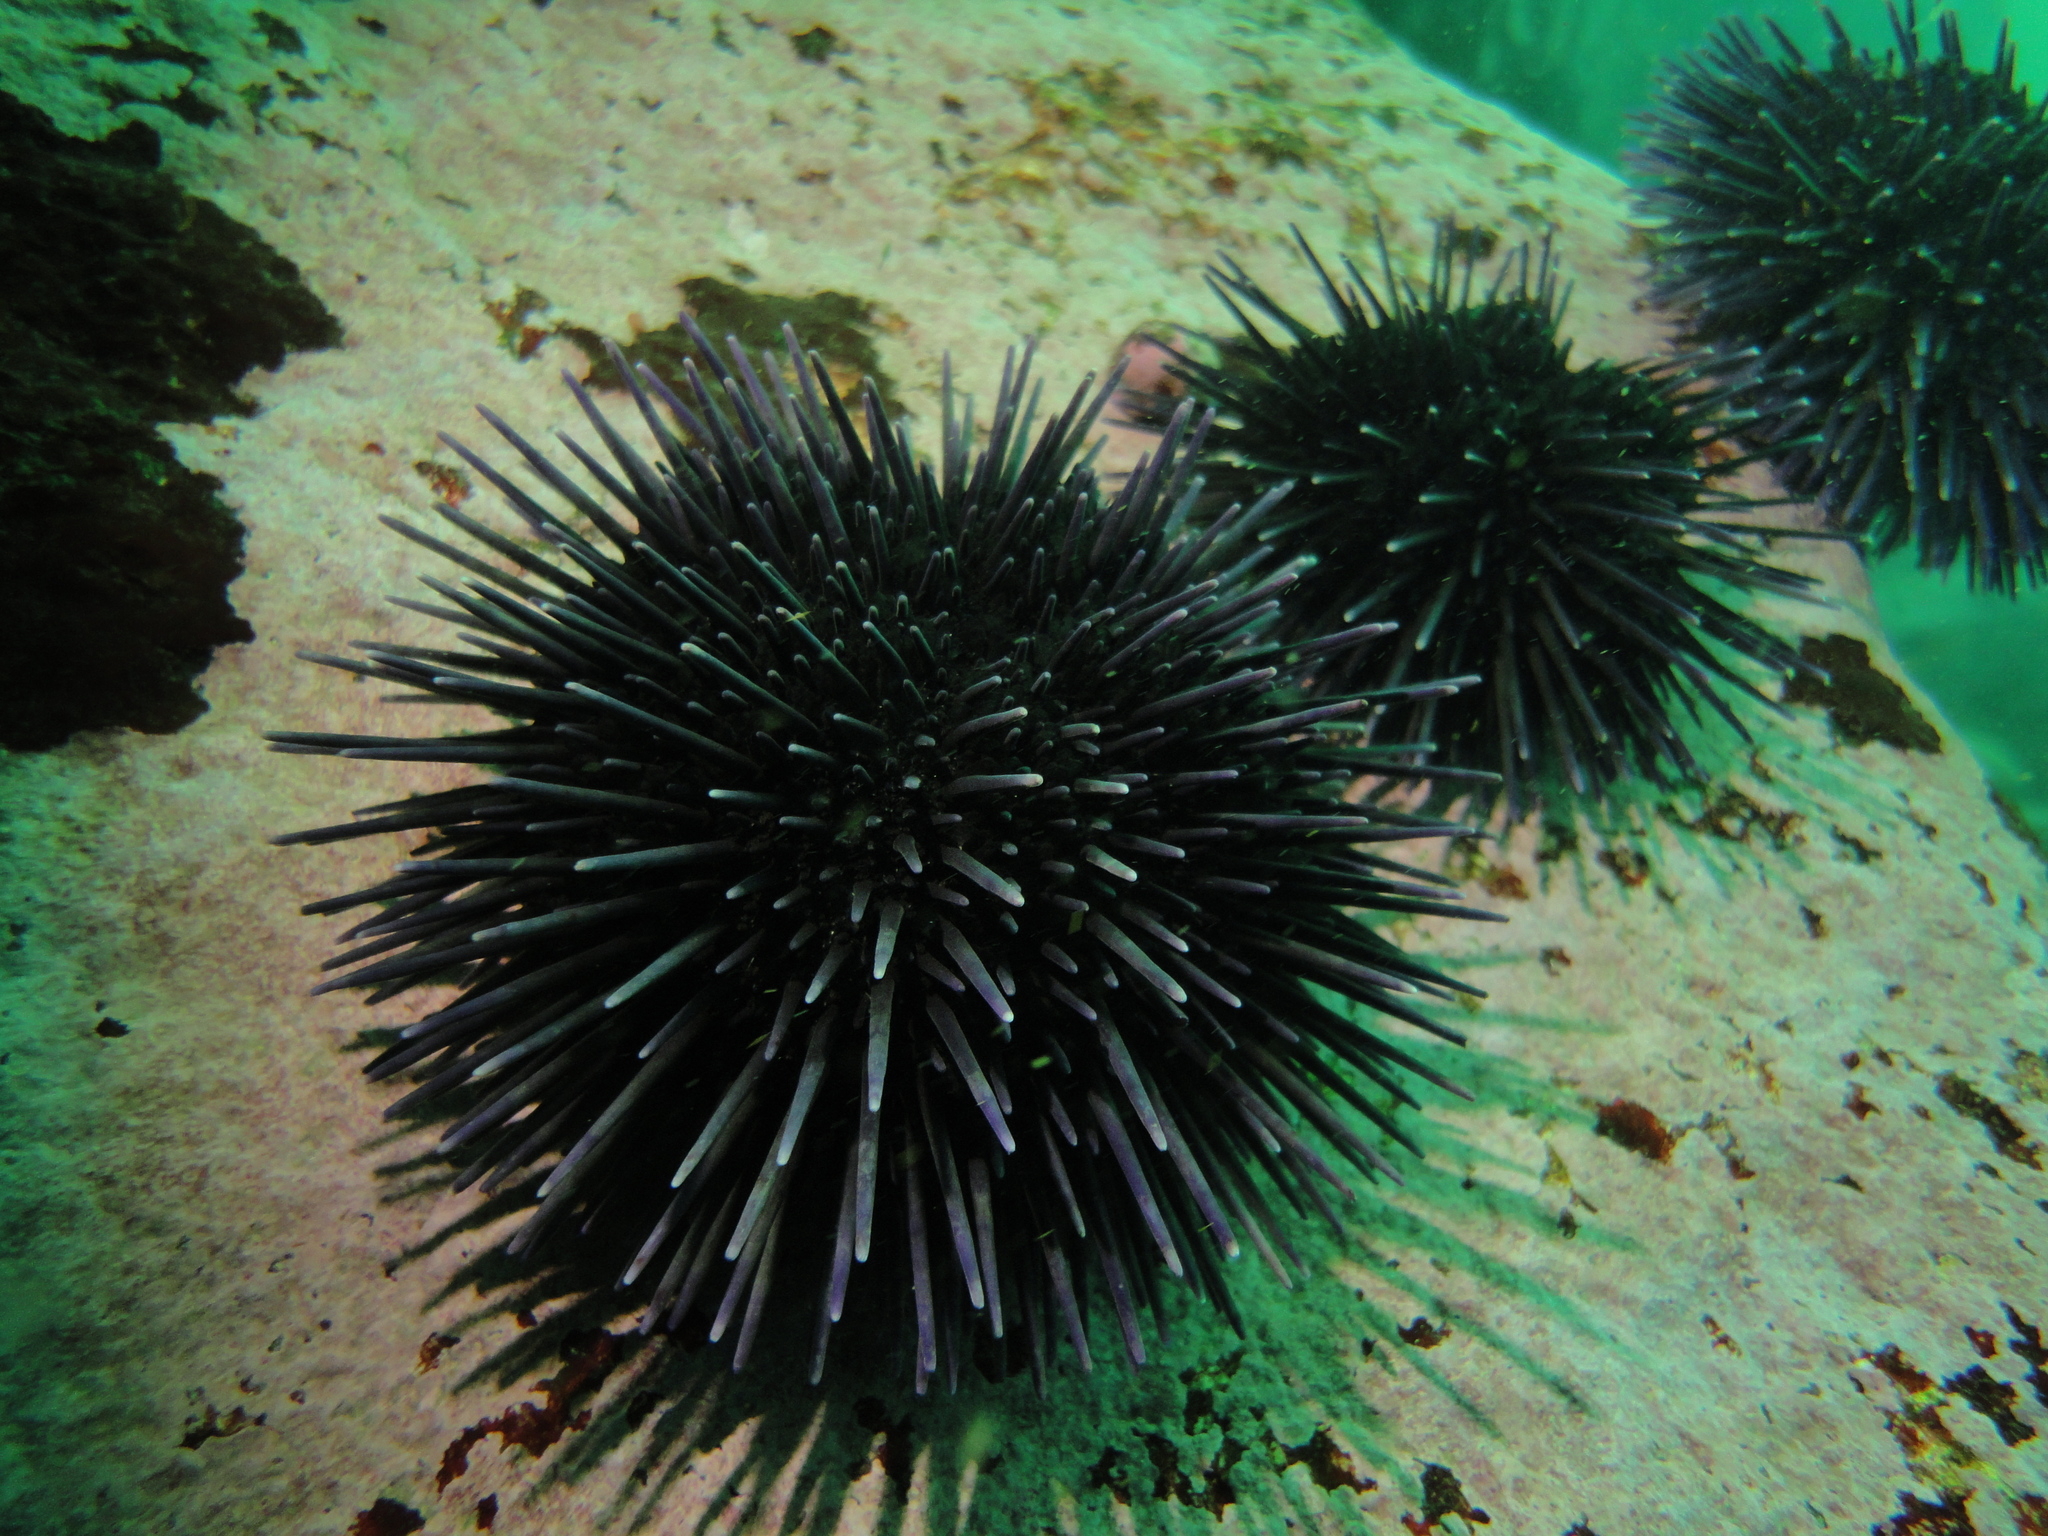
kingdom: Animalia
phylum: Echinodermata
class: Echinoidea
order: Arbacioida
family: Arbaciidae
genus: Tetrapygus
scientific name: Tetrapygus niger
